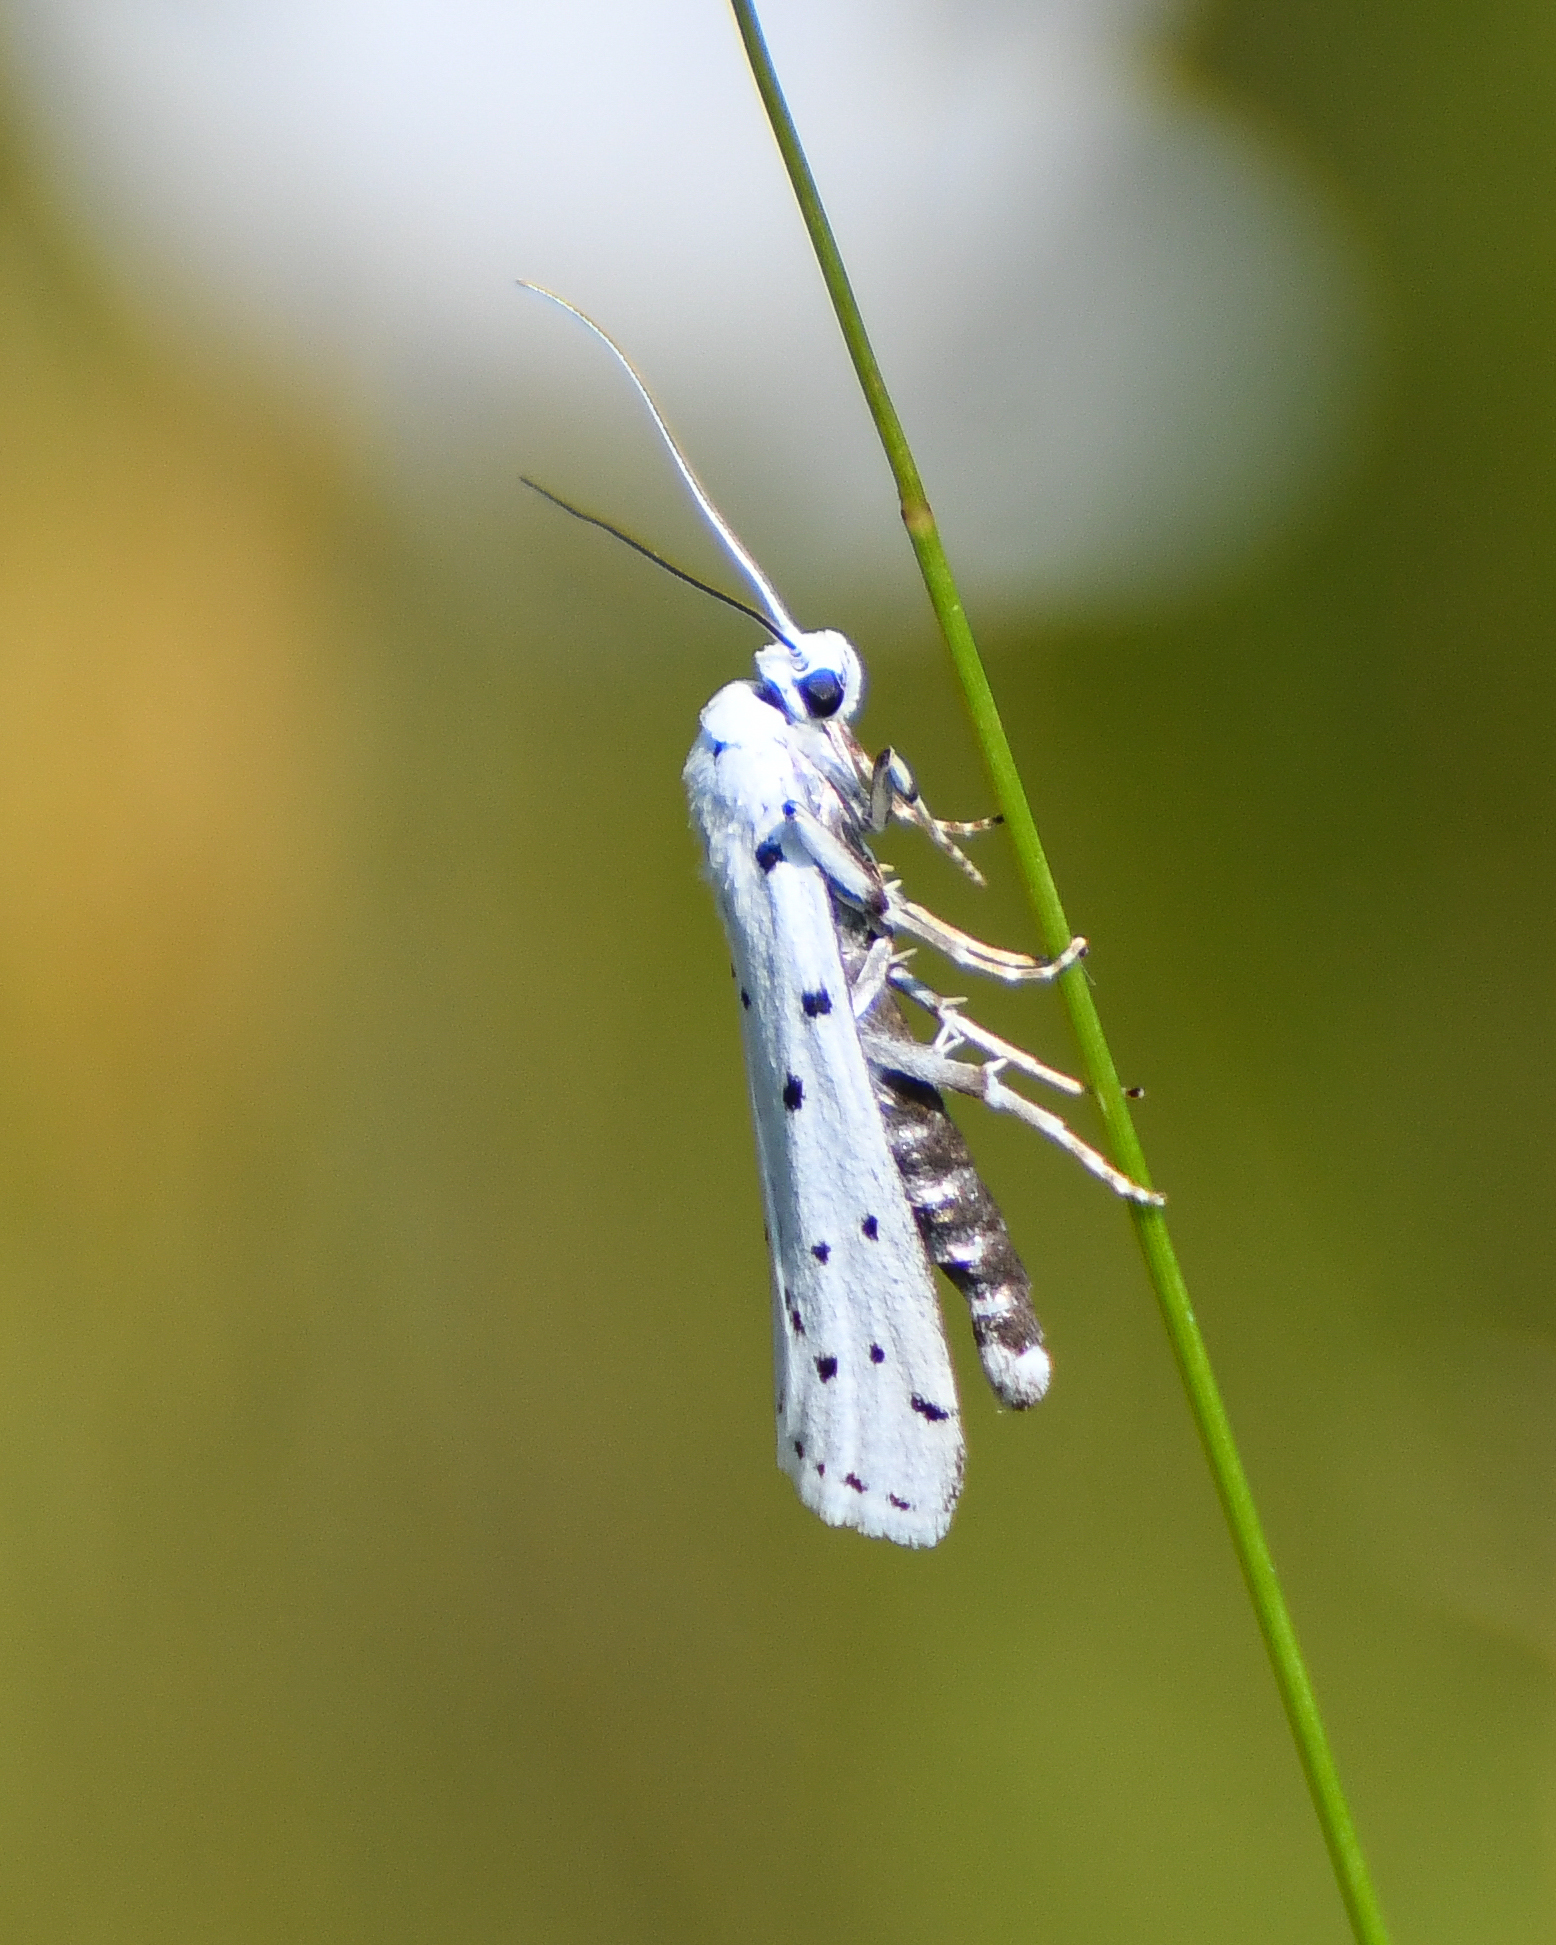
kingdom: Animalia
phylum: Arthropoda
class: Insecta
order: Lepidoptera
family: Pyralidae
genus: Myelois
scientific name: Myelois circumvoluta
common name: Thistle ermine
